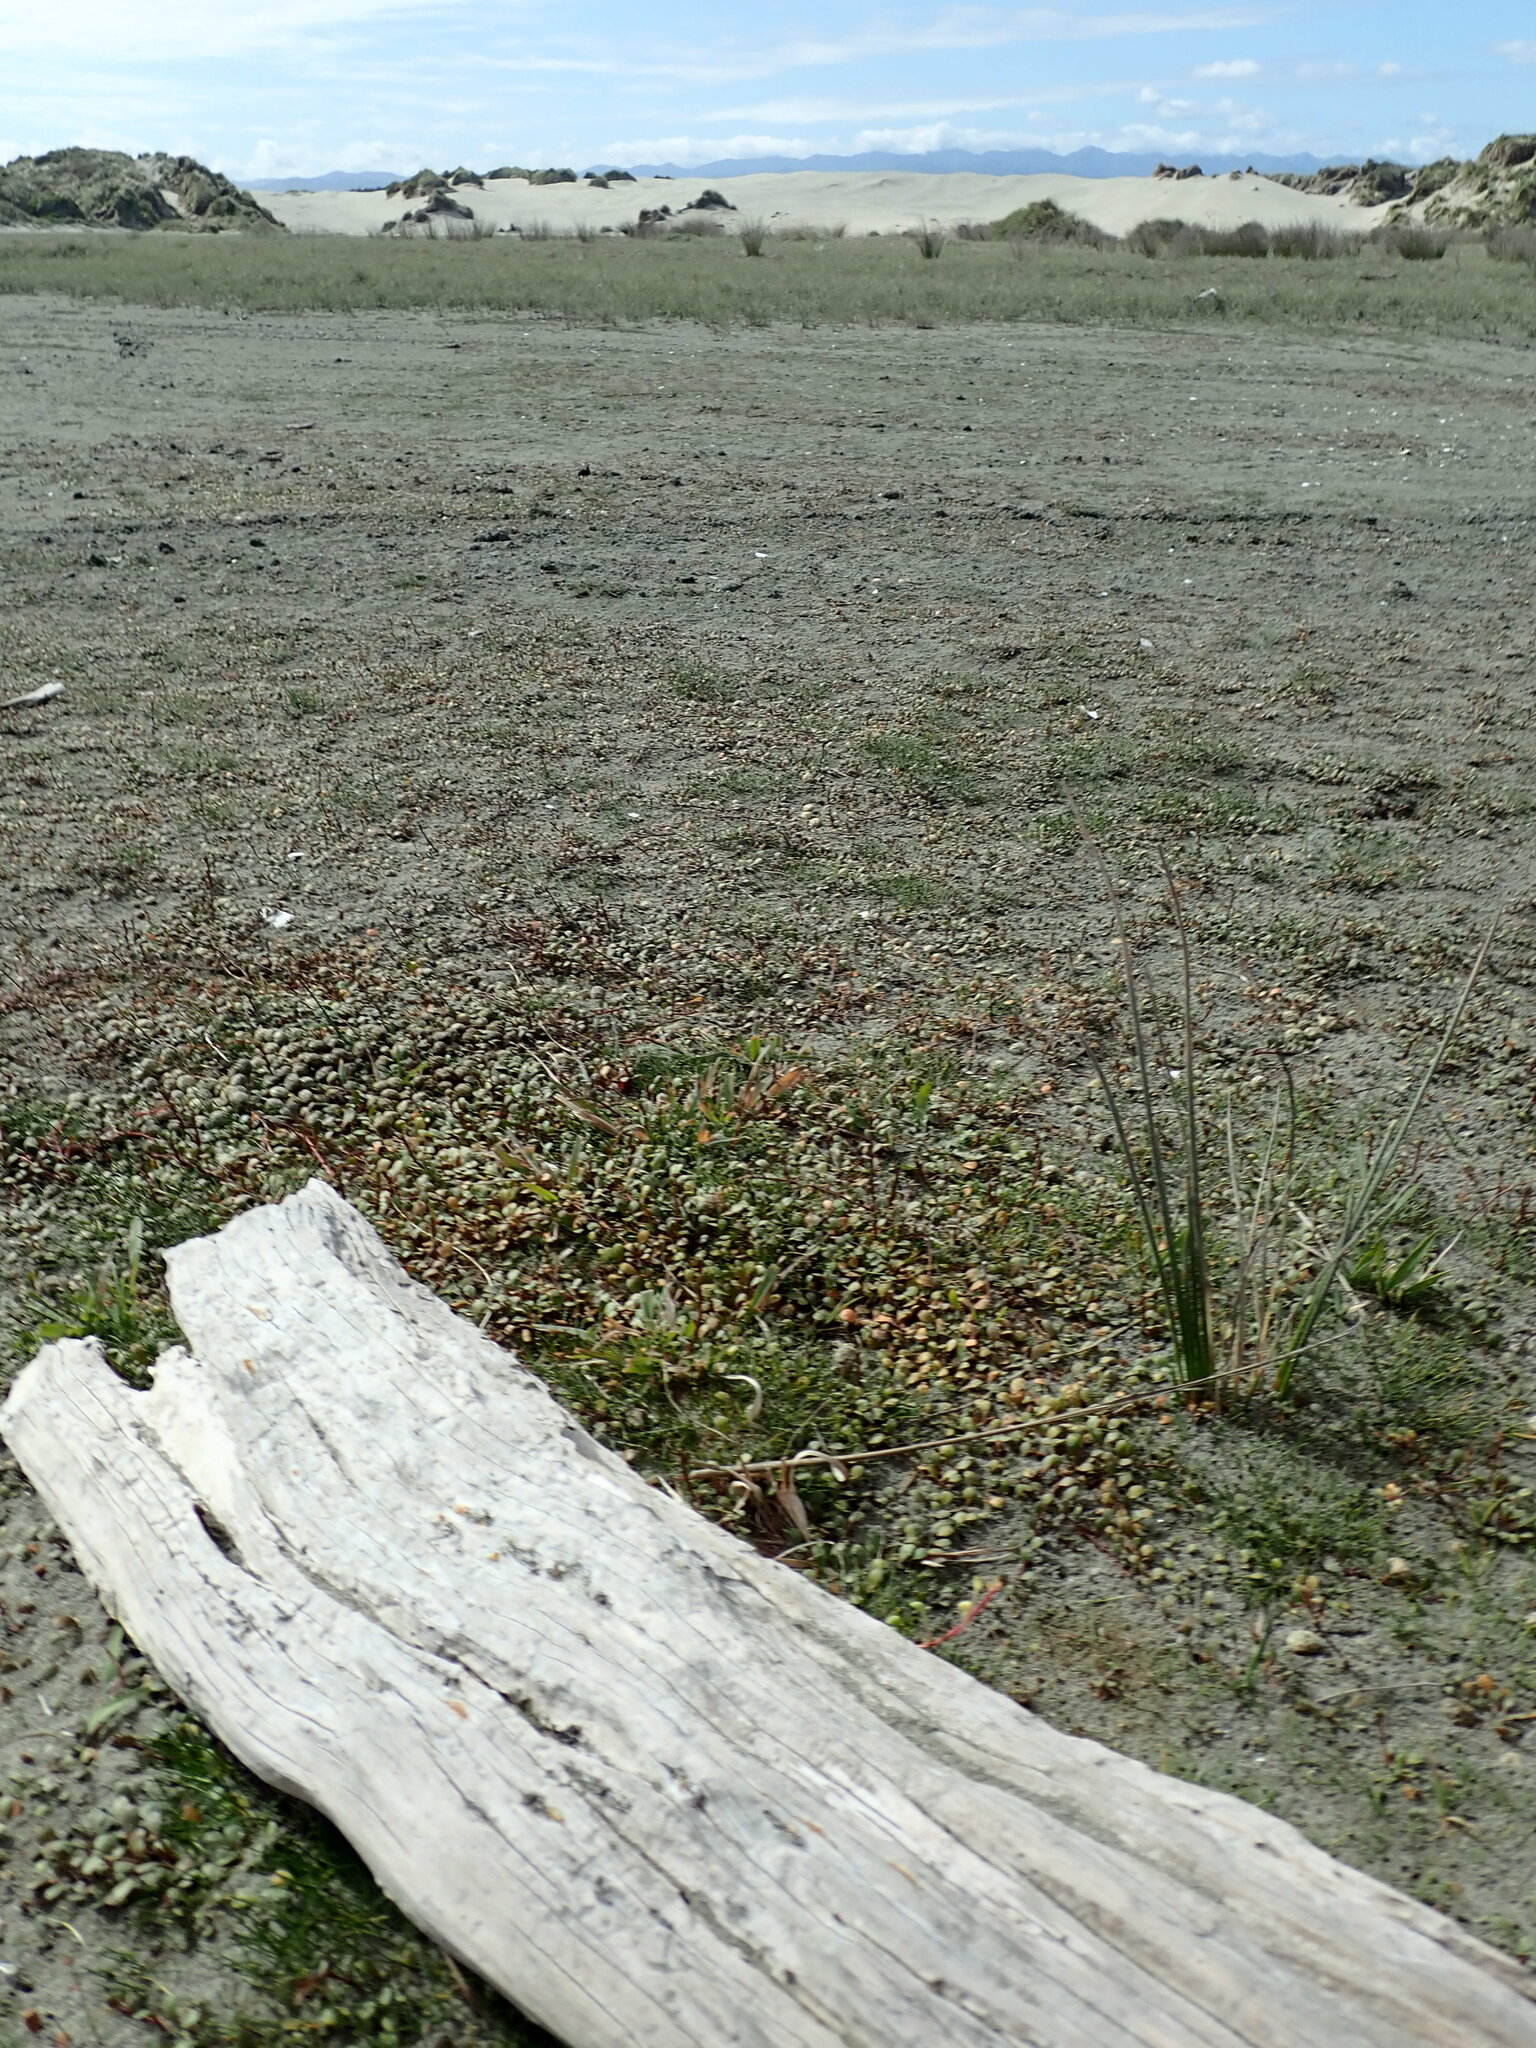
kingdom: Animalia
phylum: Arthropoda
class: Arachnida
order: Araneae
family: Theridiidae
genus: Steatoda
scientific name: Steatoda capensis
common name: Cobweb weaver
